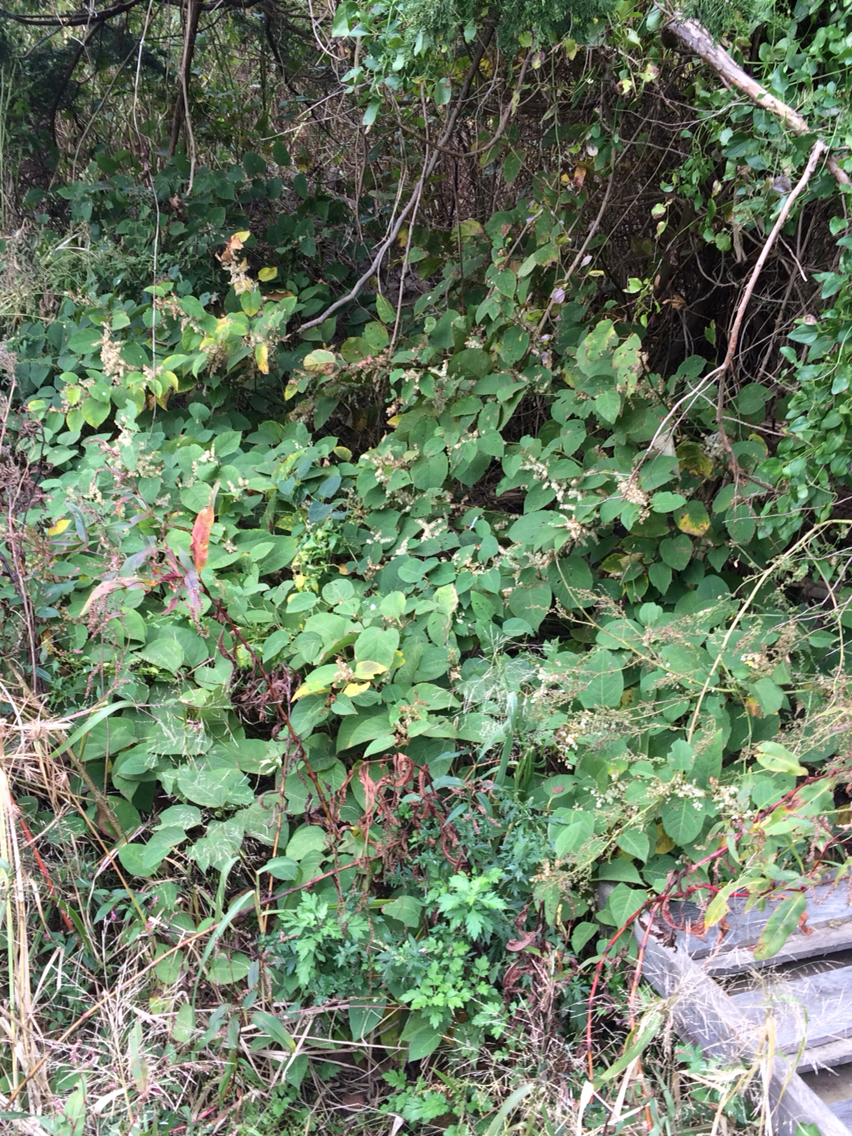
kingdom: Plantae
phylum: Tracheophyta
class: Magnoliopsida
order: Caryophyllales
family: Polygonaceae
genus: Reynoutria
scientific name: Reynoutria japonica
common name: Japanese knotweed
